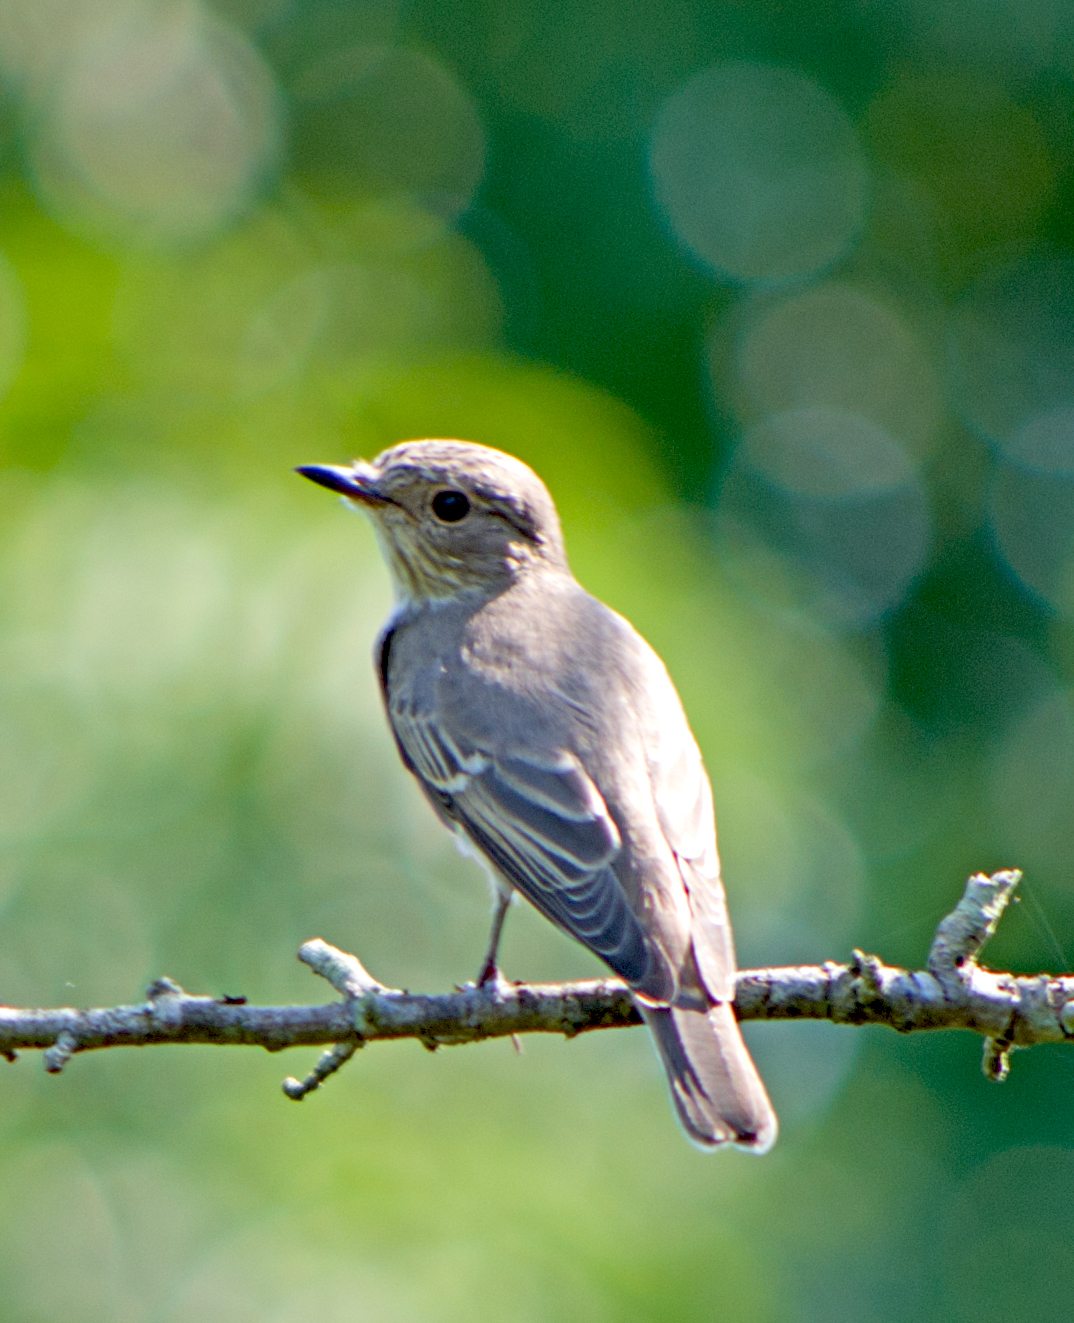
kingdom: Animalia
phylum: Chordata
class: Aves
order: Passeriformes
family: Muscicapidae
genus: Muscicapa
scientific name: Muscicapa striata
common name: Spotted flycatcher
